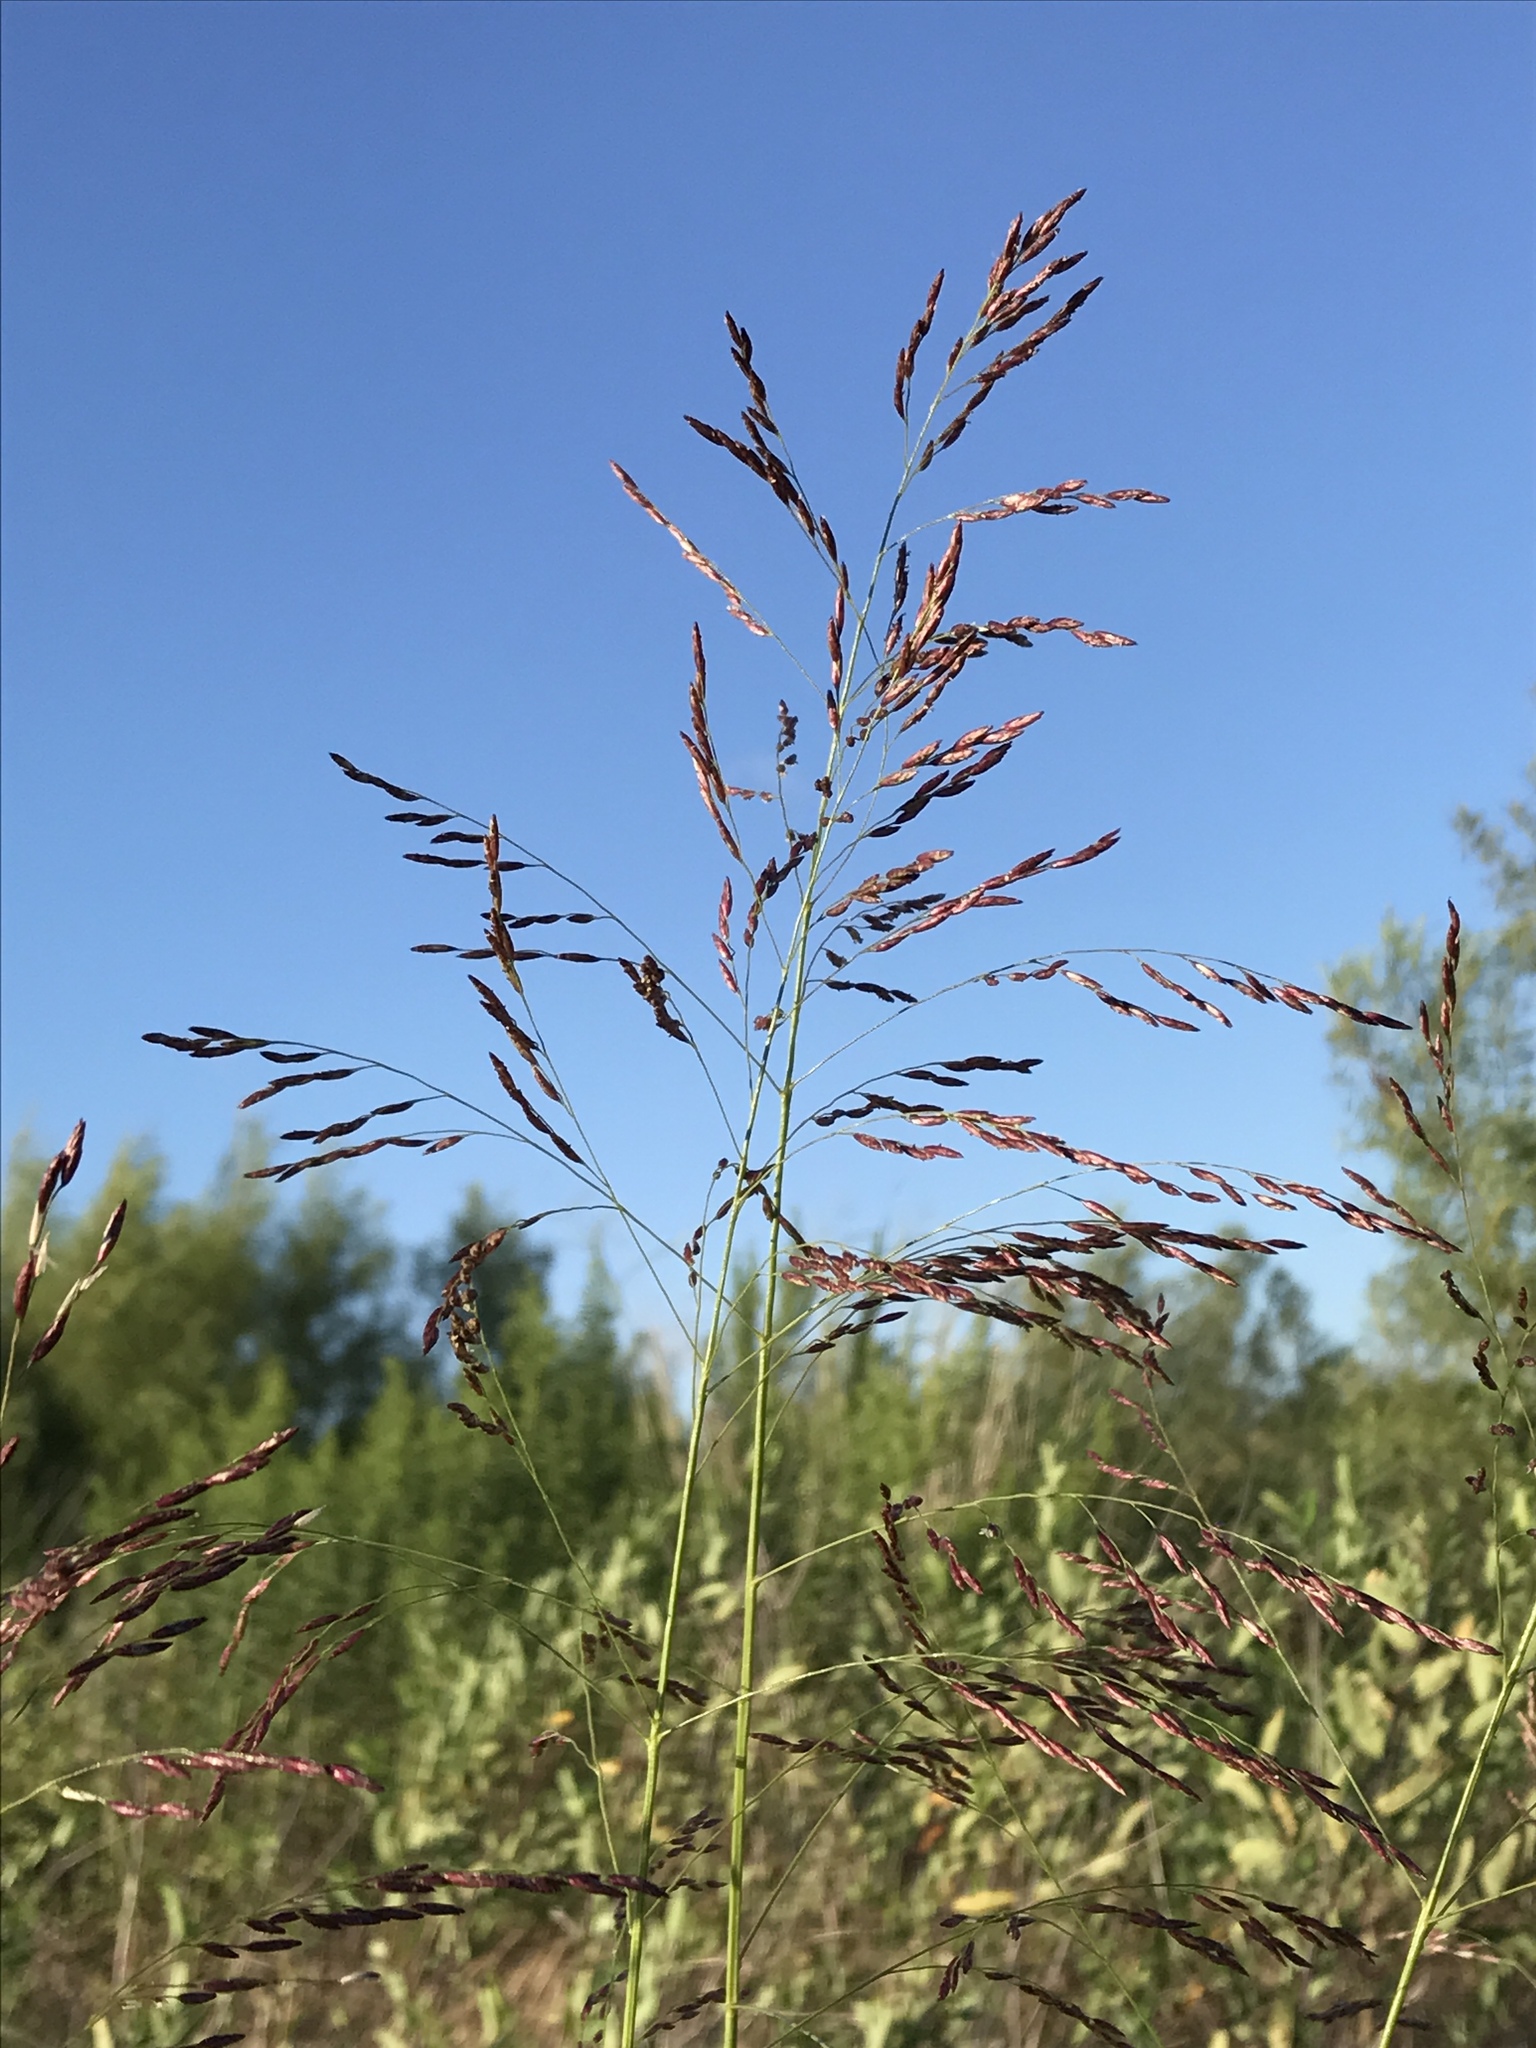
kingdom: Plantae
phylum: Tracheophyta
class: Liliopsida
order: Poales
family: Poaceae
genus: Tridens
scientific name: Tridens flavus
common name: Purpletop
